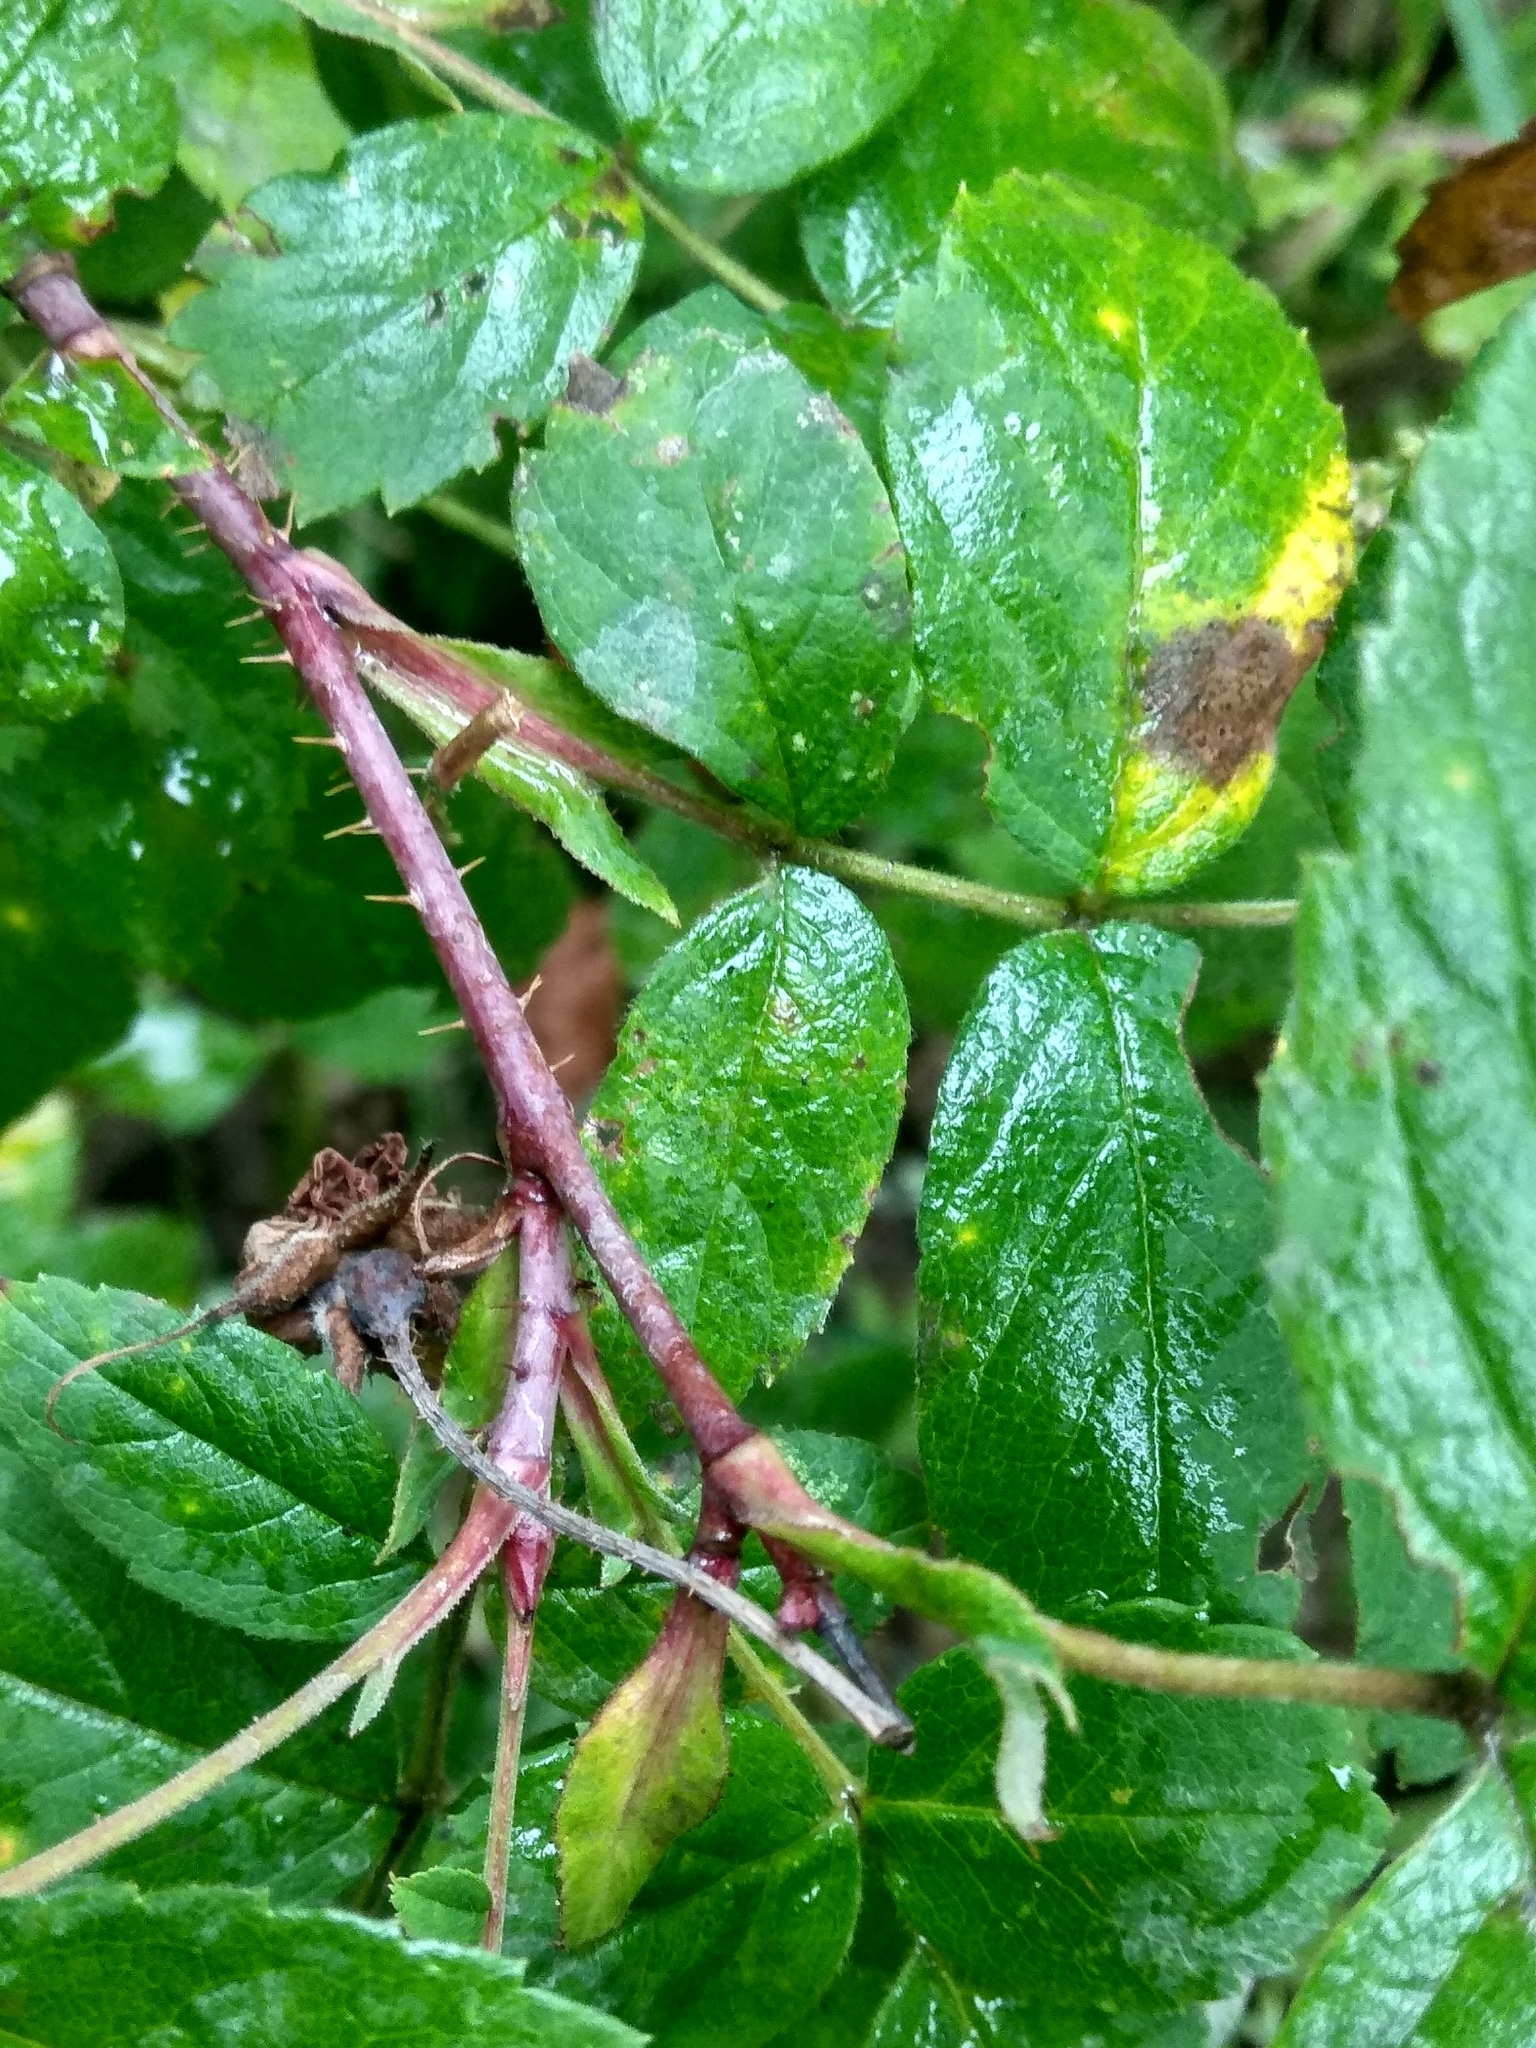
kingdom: Plantae
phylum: Tracheophyta
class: Magnoliopsida
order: Rosales
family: Rosaceae
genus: Rosa
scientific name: Rosa acicularis
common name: Prickly rose
